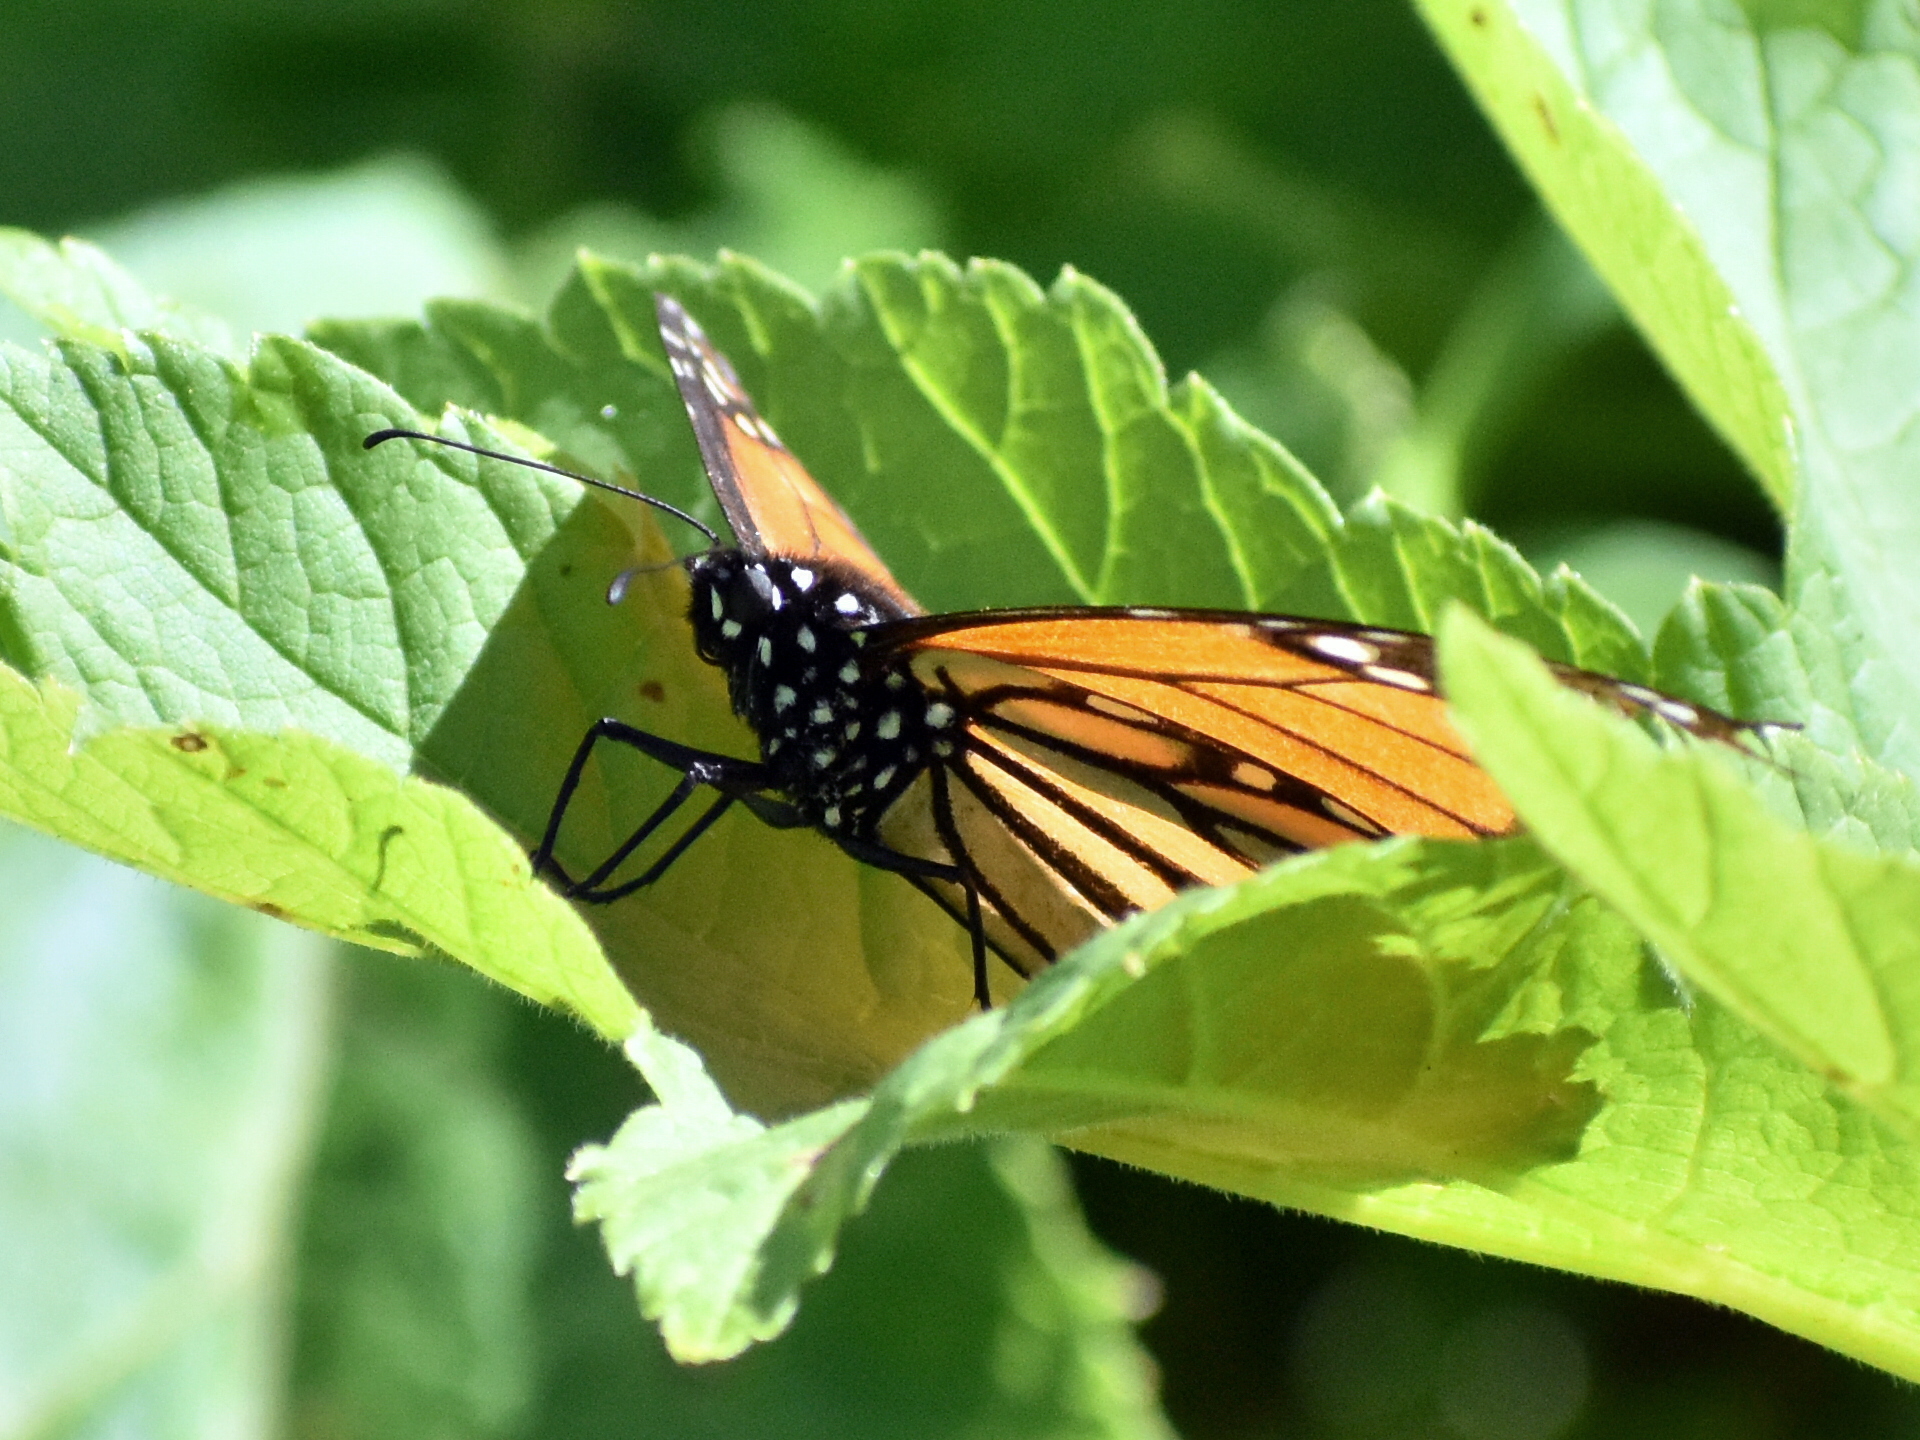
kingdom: Animalia
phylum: Arthropoda
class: Insecta
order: Lepidoptera
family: Nymphalidae
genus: Danaus
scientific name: Danaus plexippus
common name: Monarch
